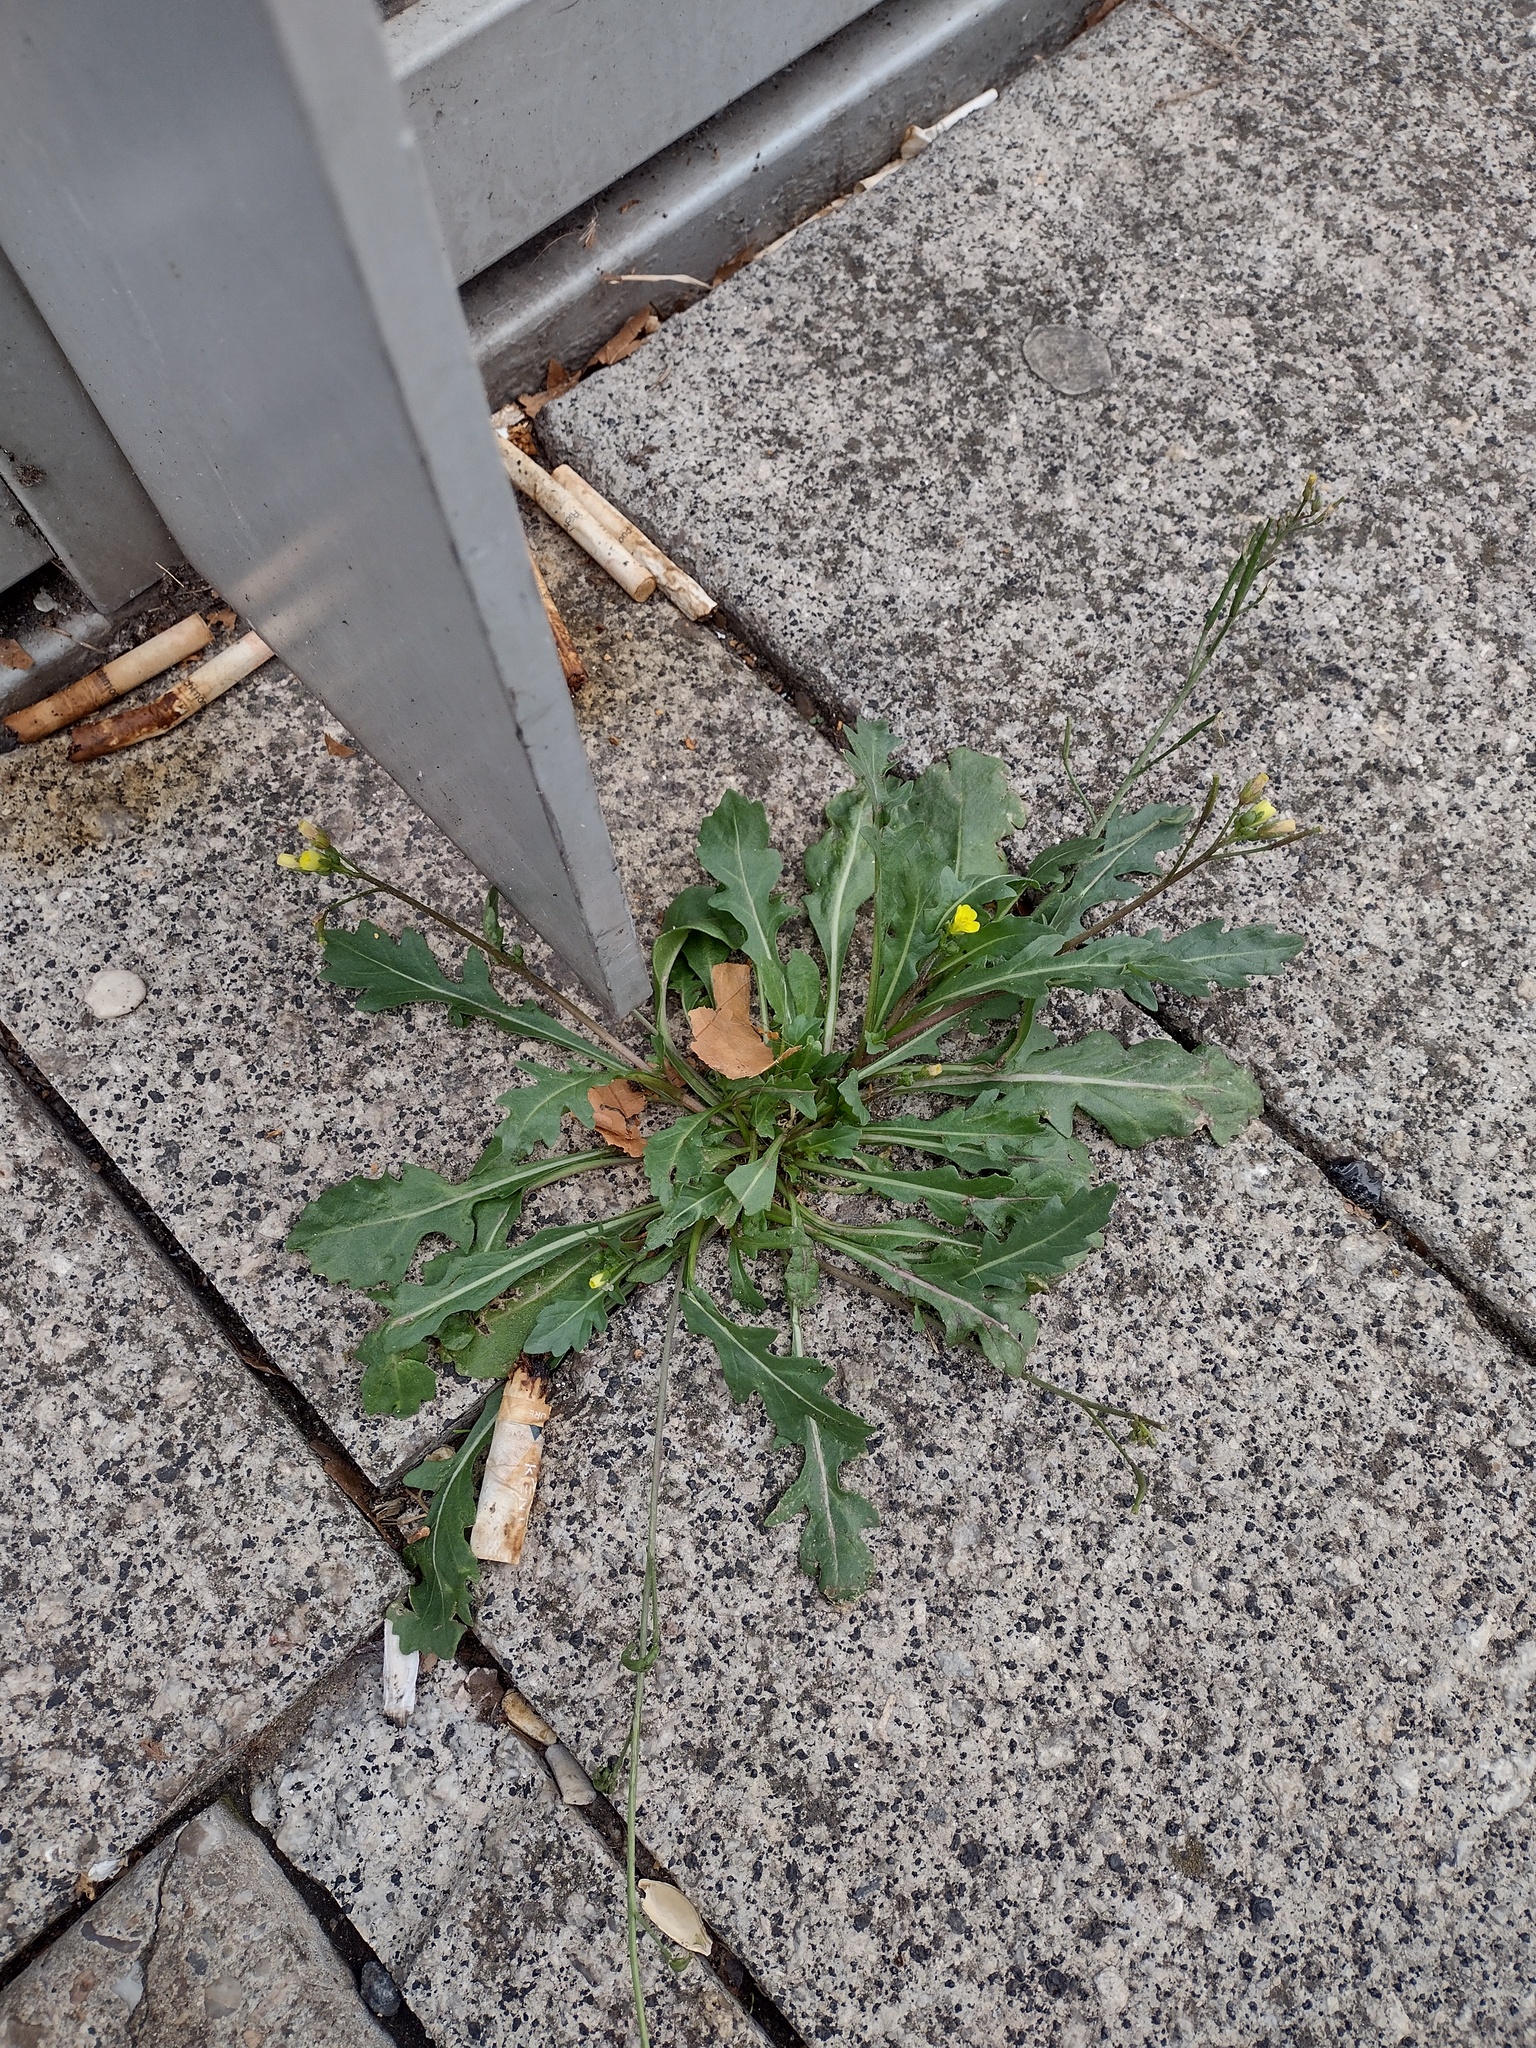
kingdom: Plantae
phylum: Tracheophyta
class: Magnoliopsida
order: Brassicales
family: Brassicaceae
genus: Diplotaxis
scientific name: Diplotaxis muralis
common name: Annual wall-rocket
